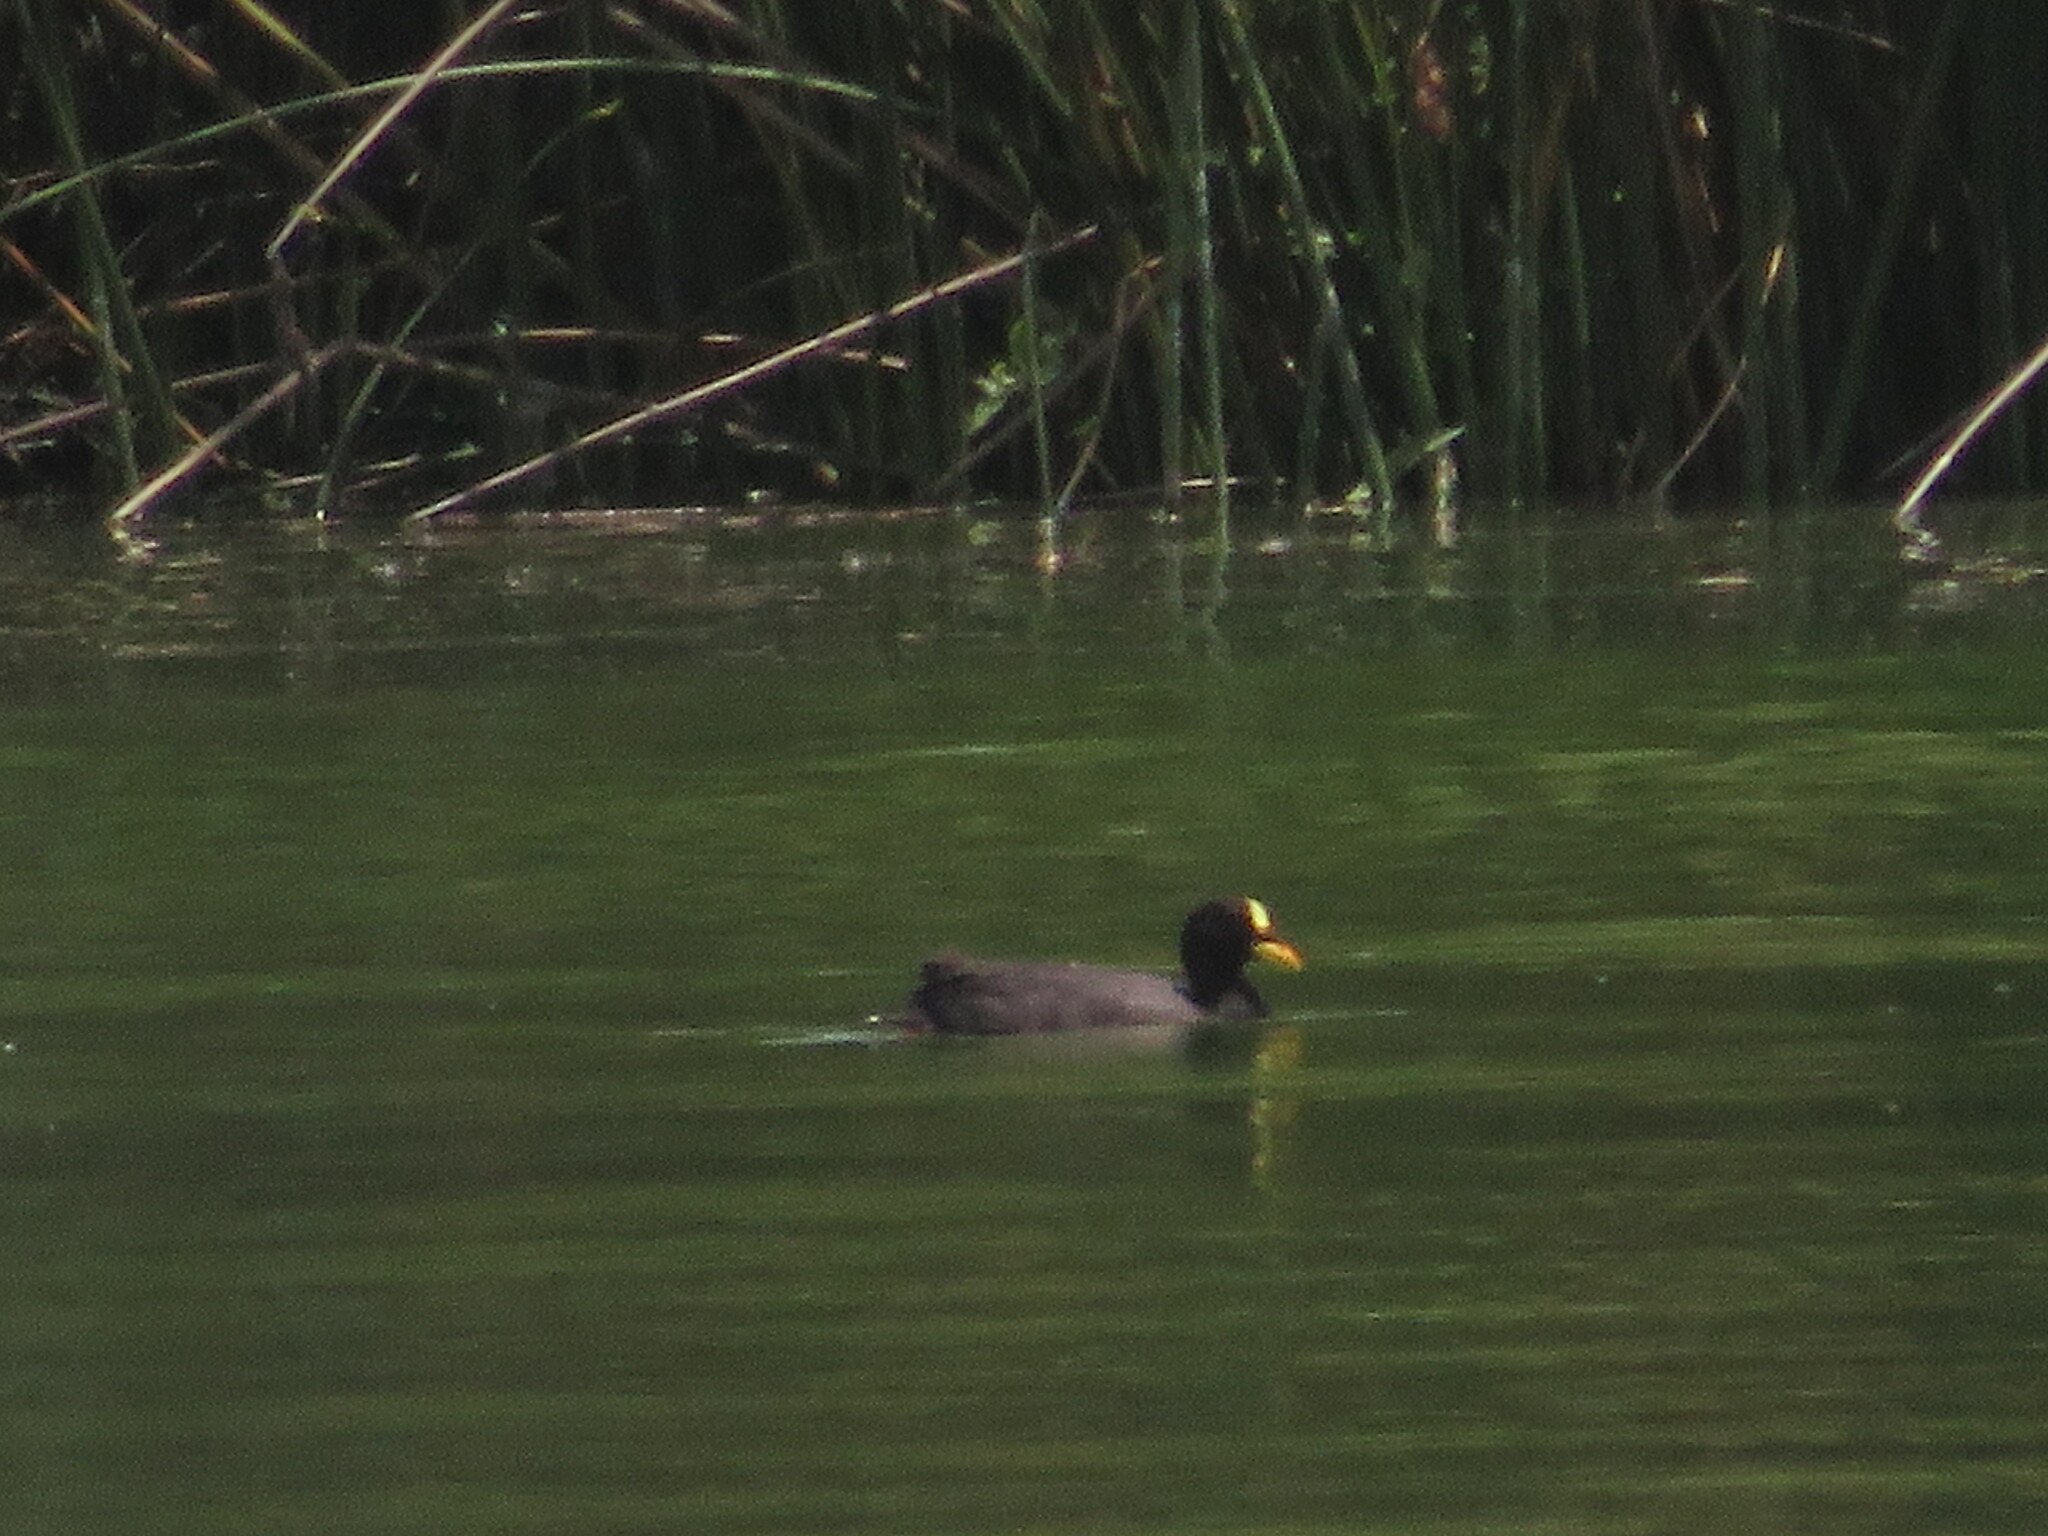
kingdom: Animalia
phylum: Chordata
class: Aves
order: Gruiformes
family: Rallidae
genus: Fulica
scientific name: Fulica armillata
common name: Red-gartered coot
